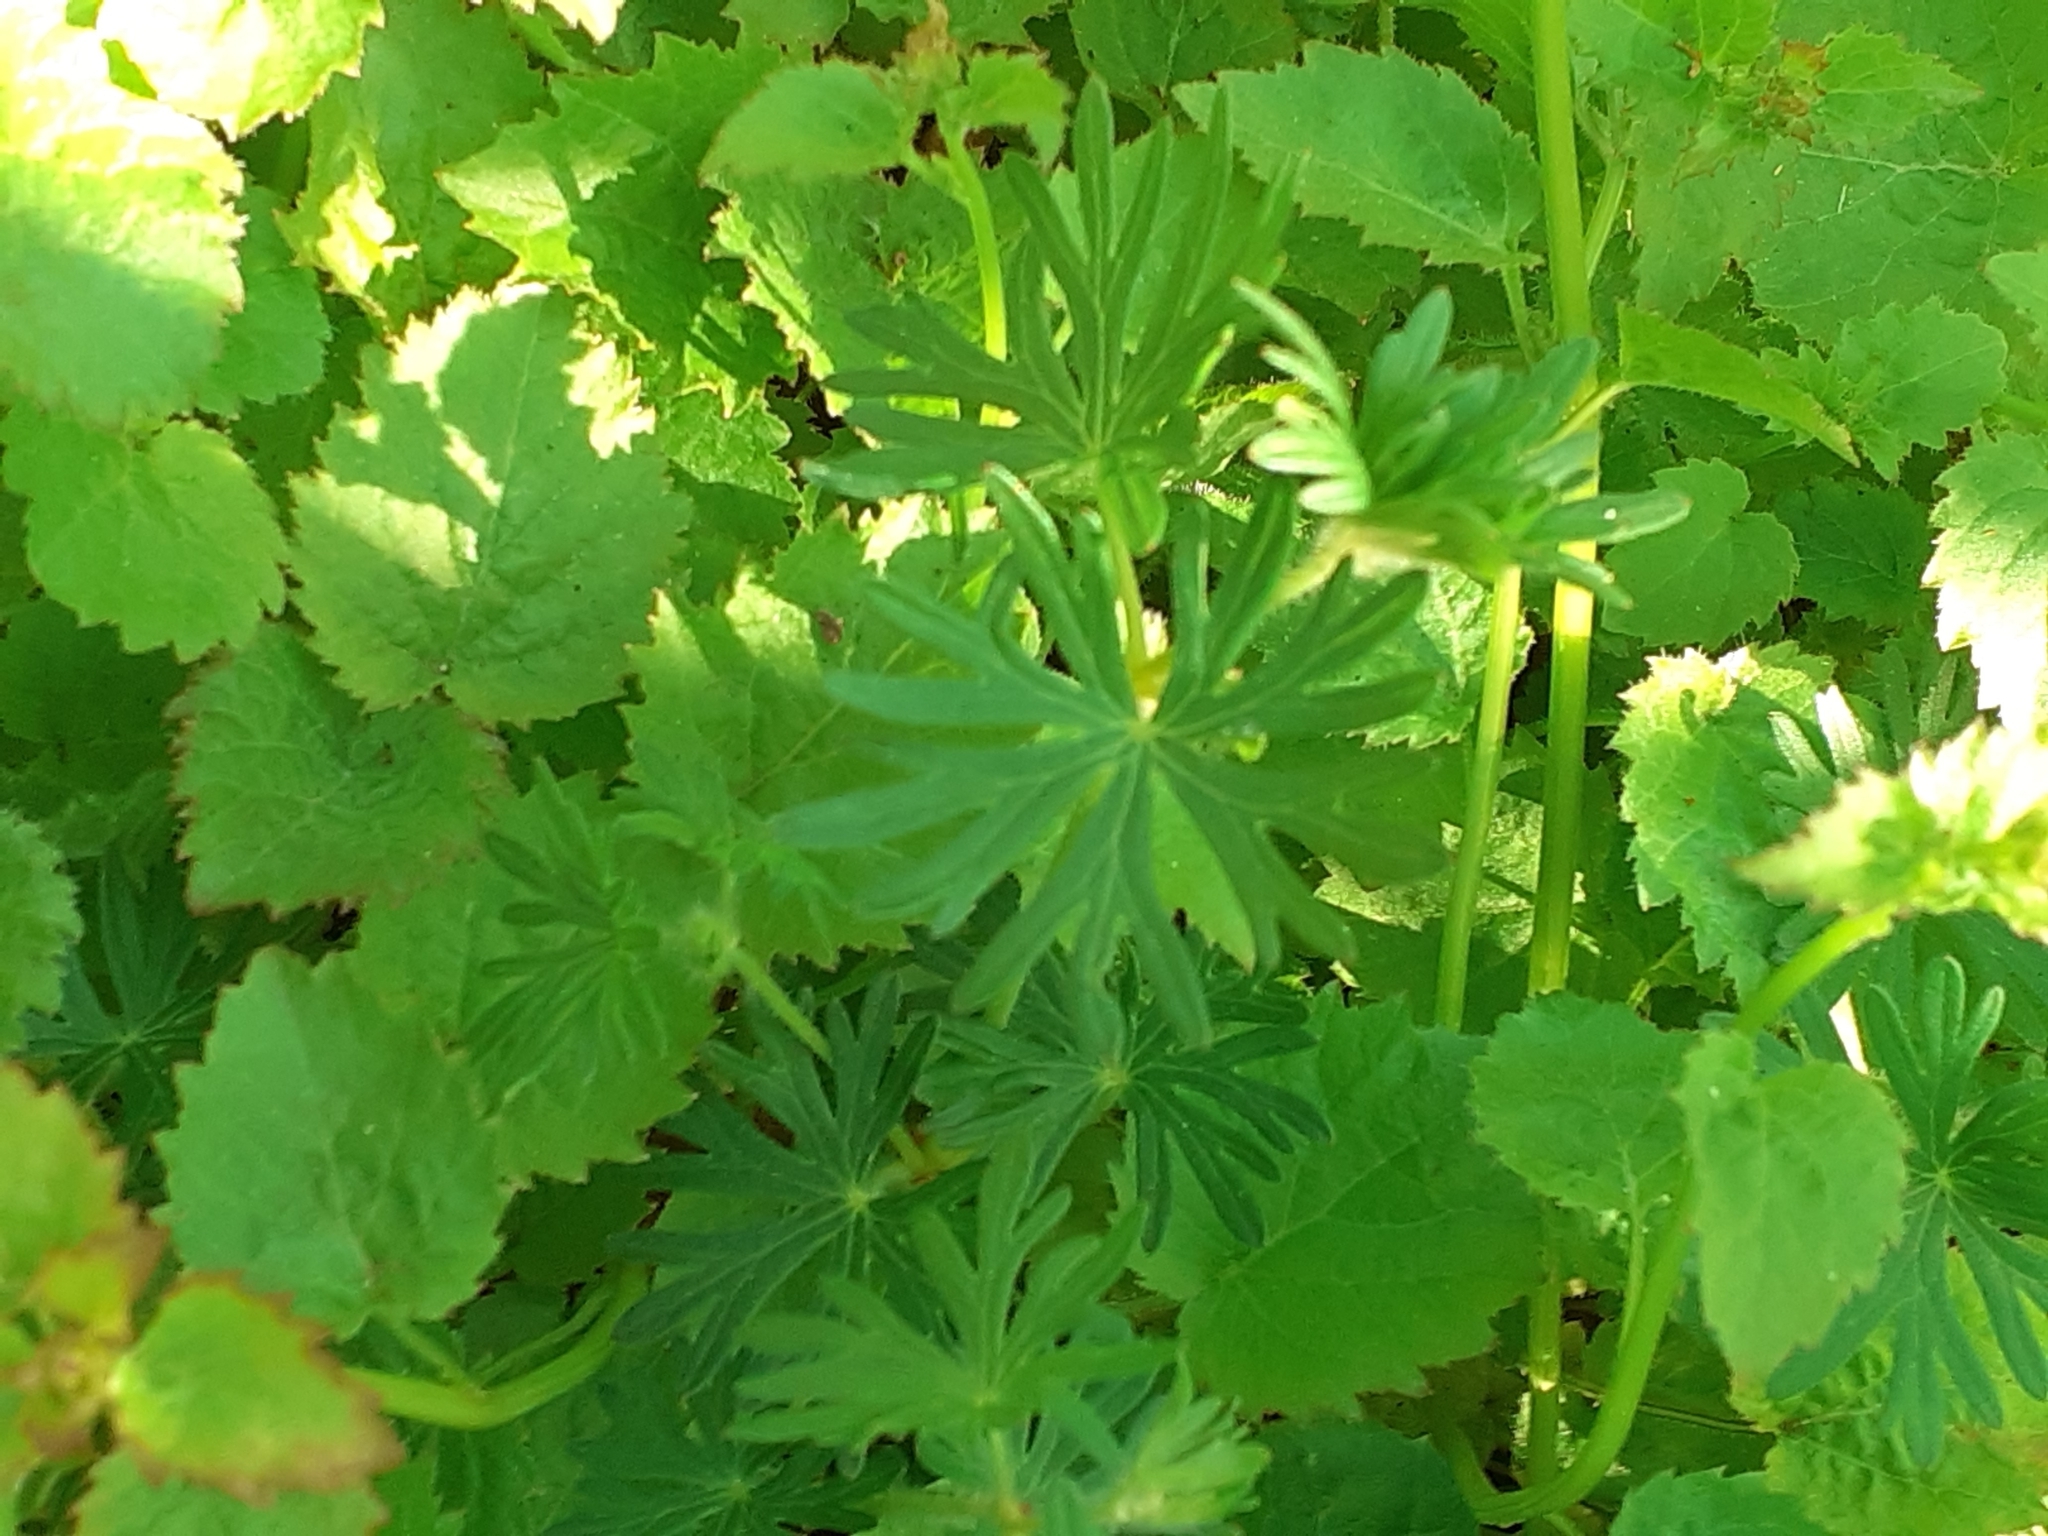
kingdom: Plantae
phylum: Tracheophyta
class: Magnoliopsida
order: Geraniales
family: Geraniaceae
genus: Geranium
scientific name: Geranium sanguineum
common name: Bloody crane's-bill
